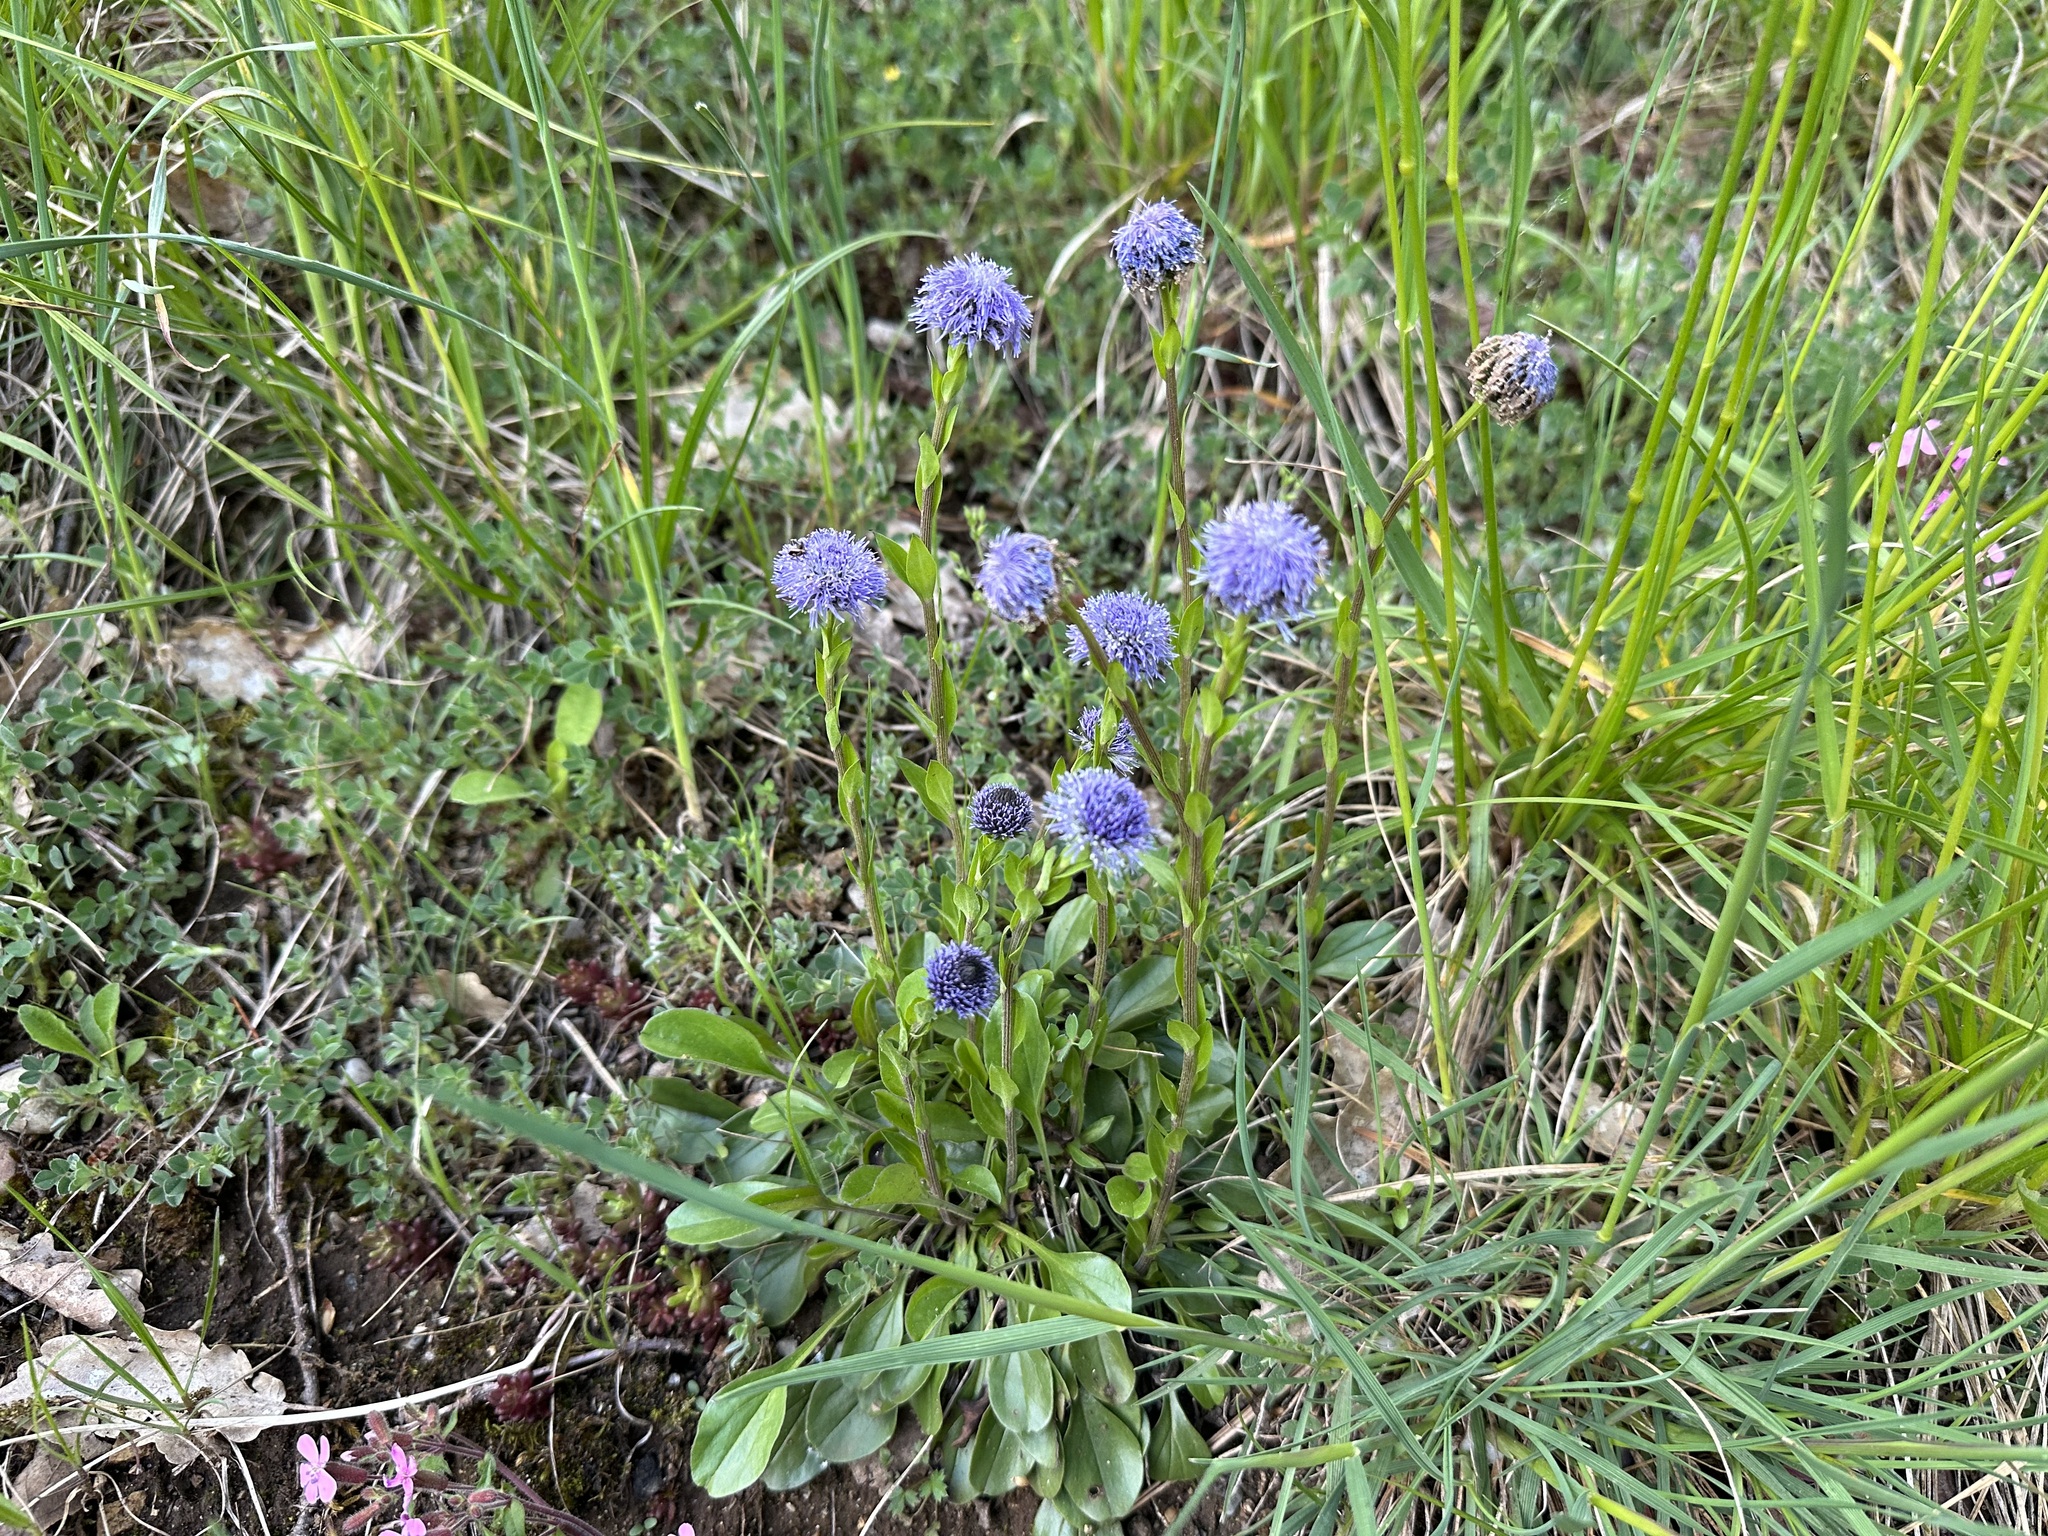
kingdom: Plantae
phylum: Tracheophyta
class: Magnoliopsida
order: Lamiales
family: Plantaginaceae
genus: Globularia
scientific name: Globularia bisnagarica
